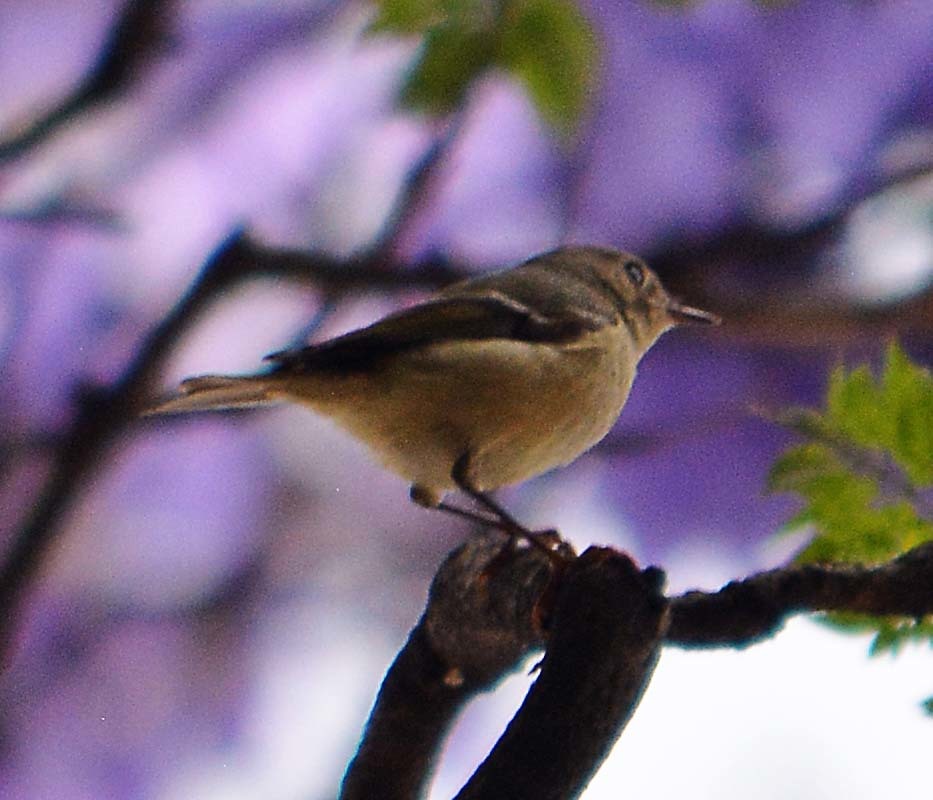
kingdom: Animalia
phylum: Chordata
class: Aves
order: Passeriformes
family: Regulidae
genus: Regulus
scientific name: Regulus calendula
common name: Ruby-crowned kinglet
